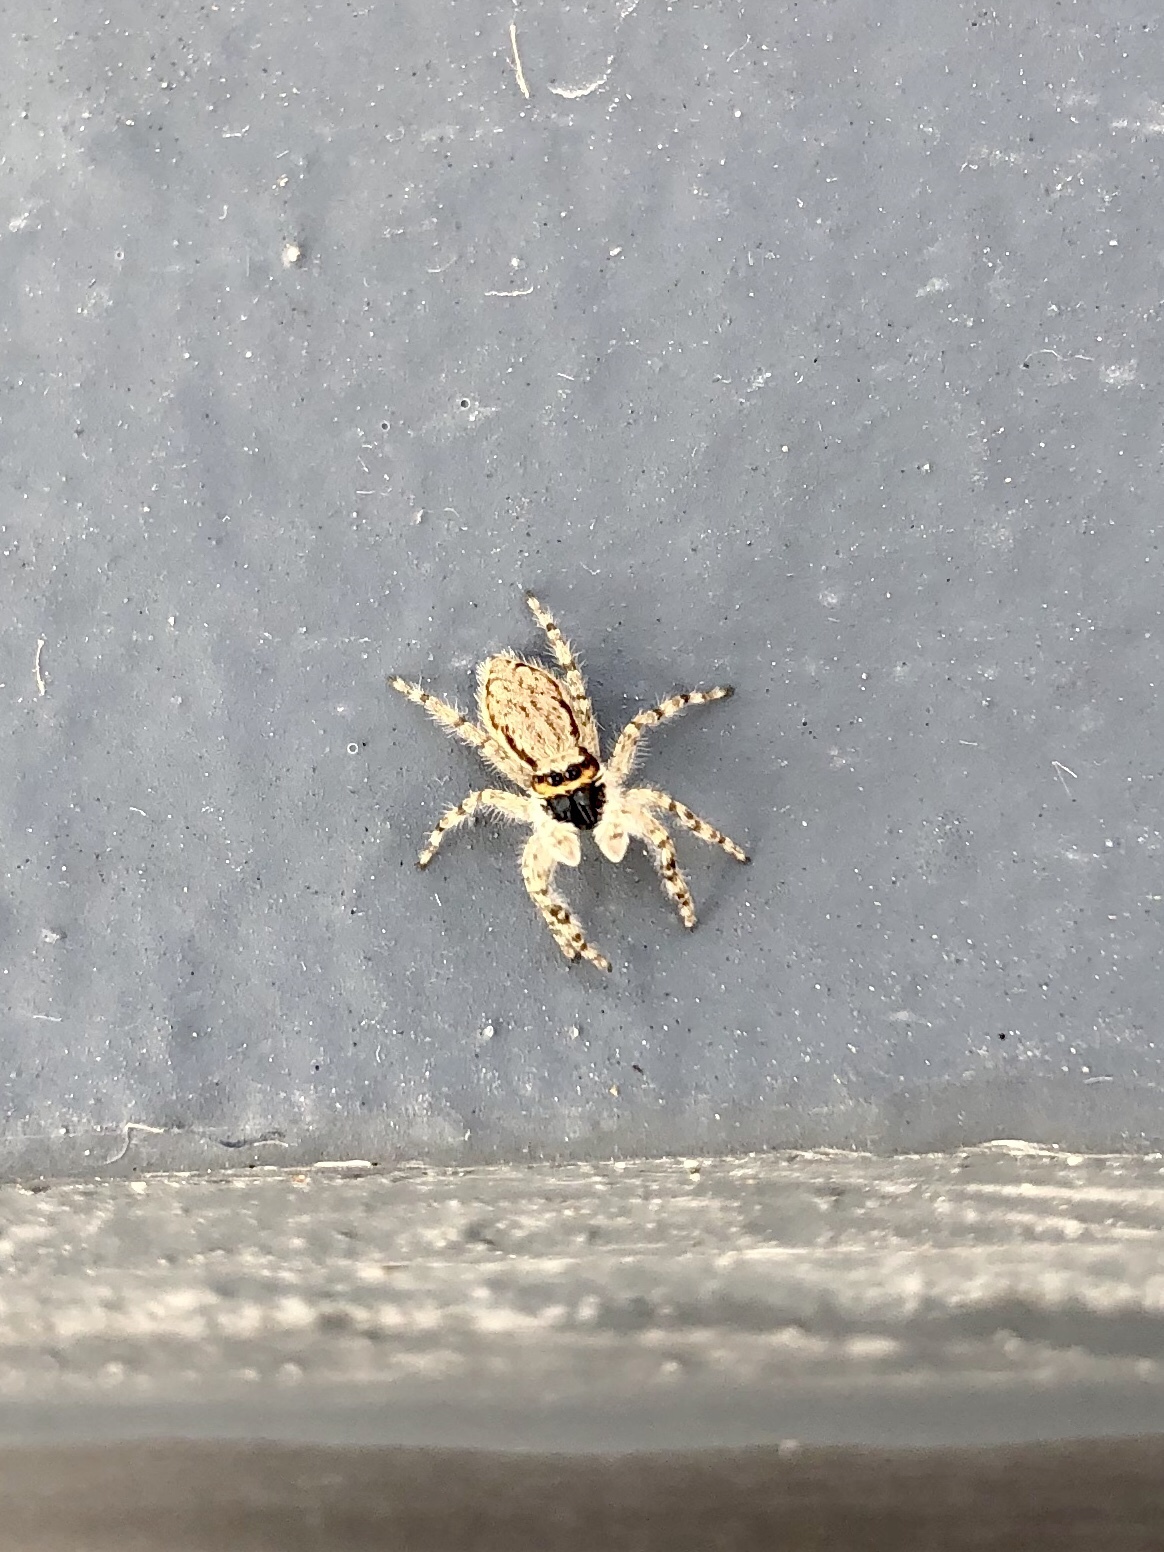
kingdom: Animalia
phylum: Arthropoda
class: Arachnida
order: Araneae
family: Salticidae
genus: Menemerus
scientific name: Menemerus bivittatus
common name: Gray wall jumper
